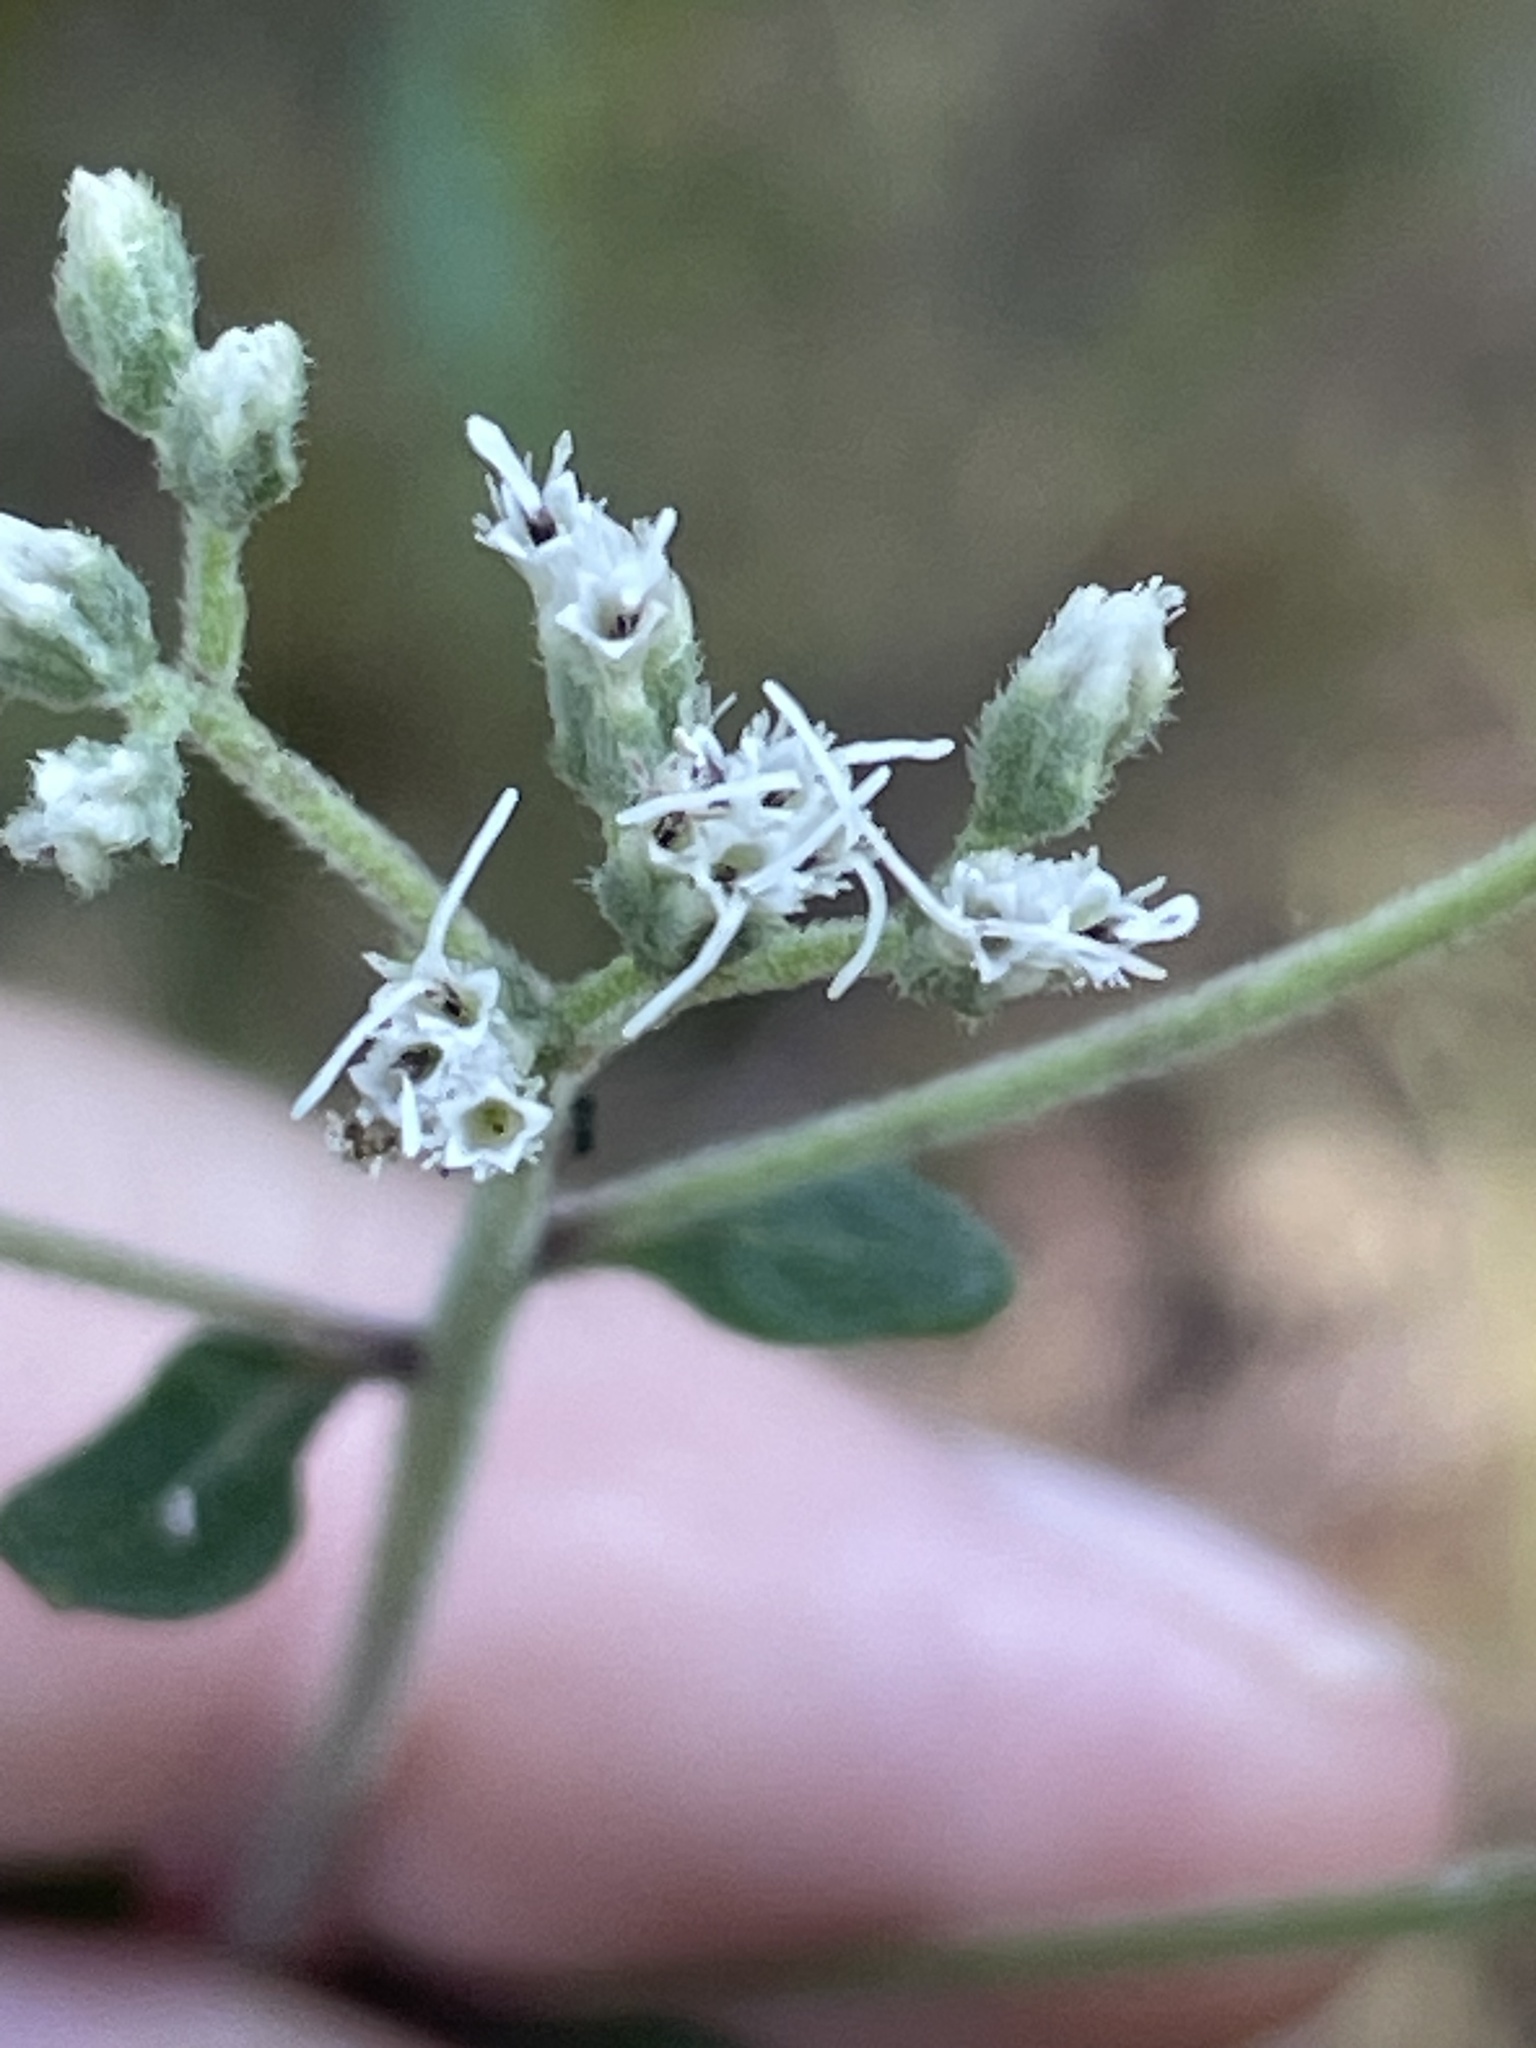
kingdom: Plantae
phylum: Tracheophyta
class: Magnoliopsida
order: Asterales
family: Asteraceae
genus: Eupatorium
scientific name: Eupatorium pilosum
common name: Rough boneset
